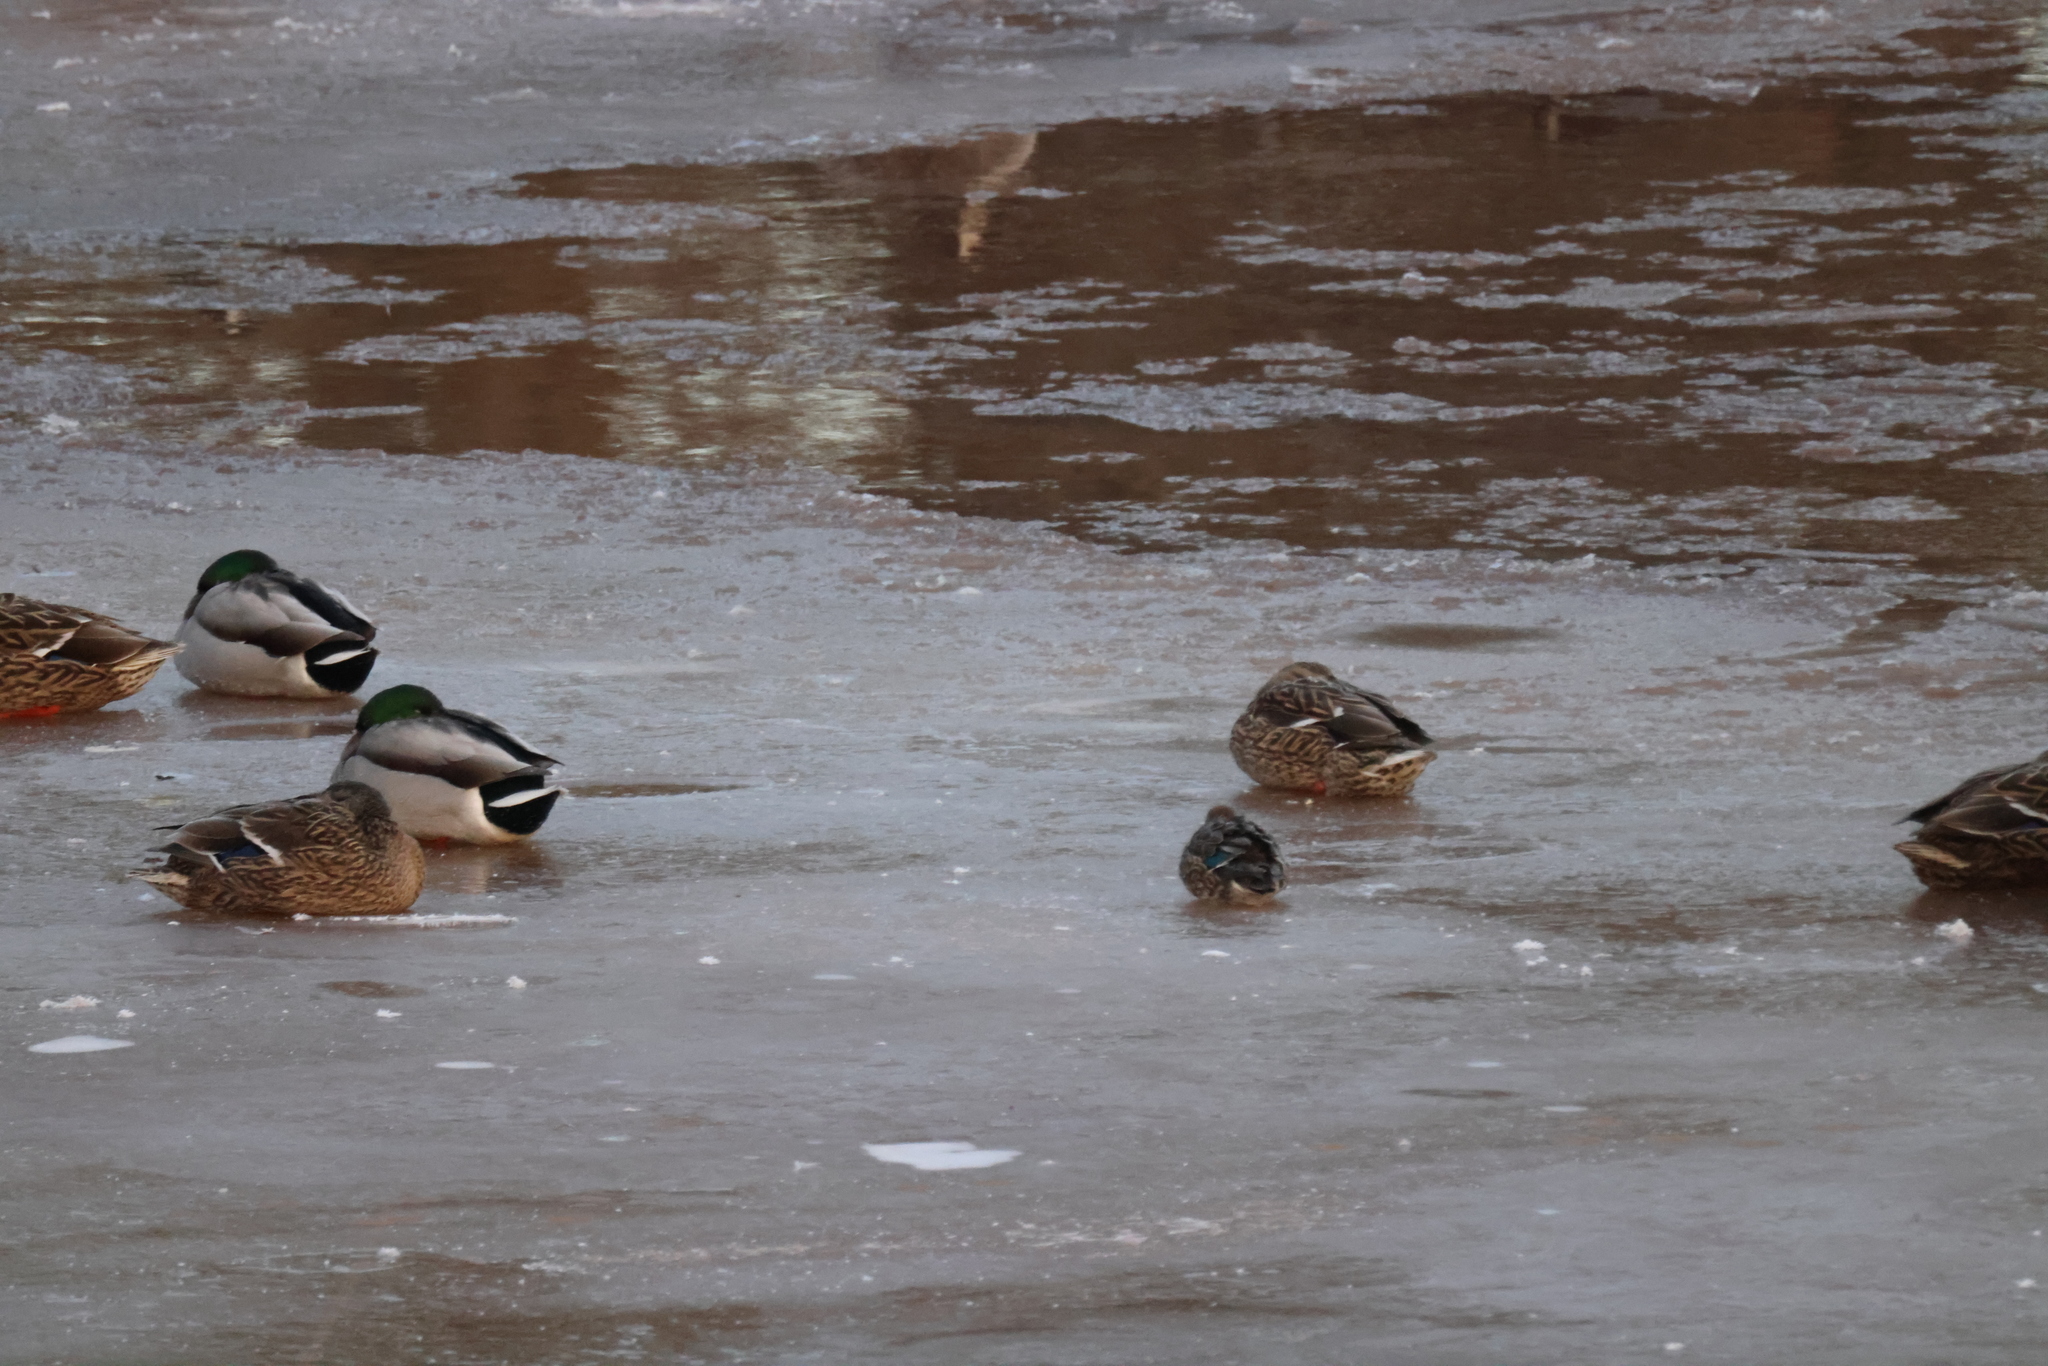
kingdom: Animalia
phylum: Chordata
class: Aves
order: Anseriformes
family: Anatidae
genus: Anas
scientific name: Anas crecca
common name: Eurasian teal
